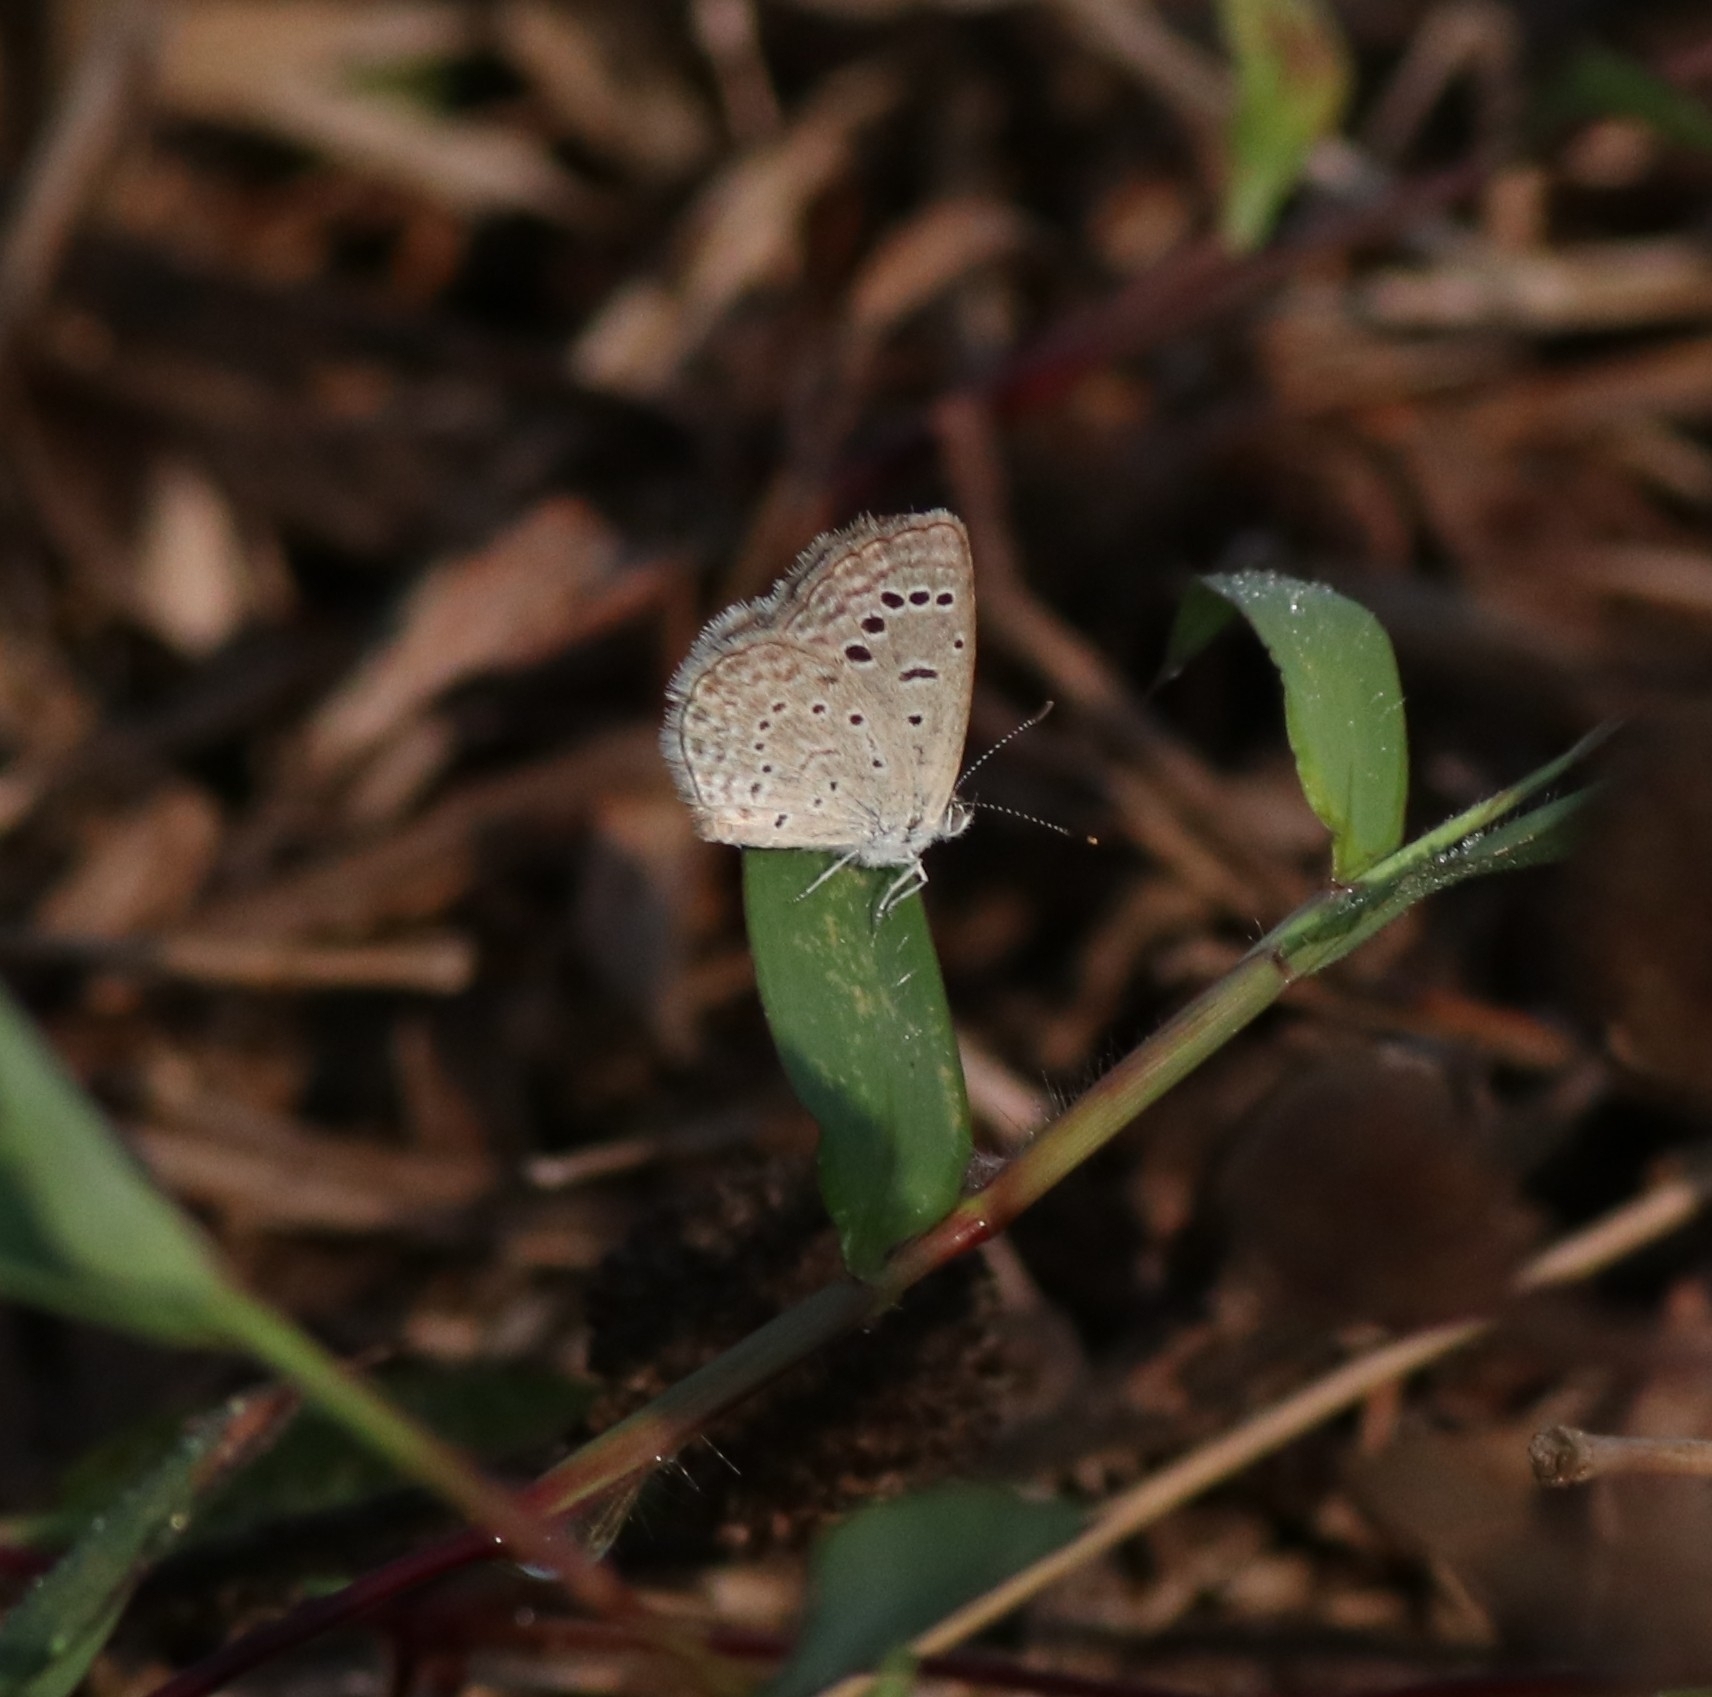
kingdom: Animalia
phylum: Arthropoda
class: Insecta
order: Lepidoptera
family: Lycaenidae
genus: Zizeeria
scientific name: Zizeeria karsandra
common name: Dark grass blue
